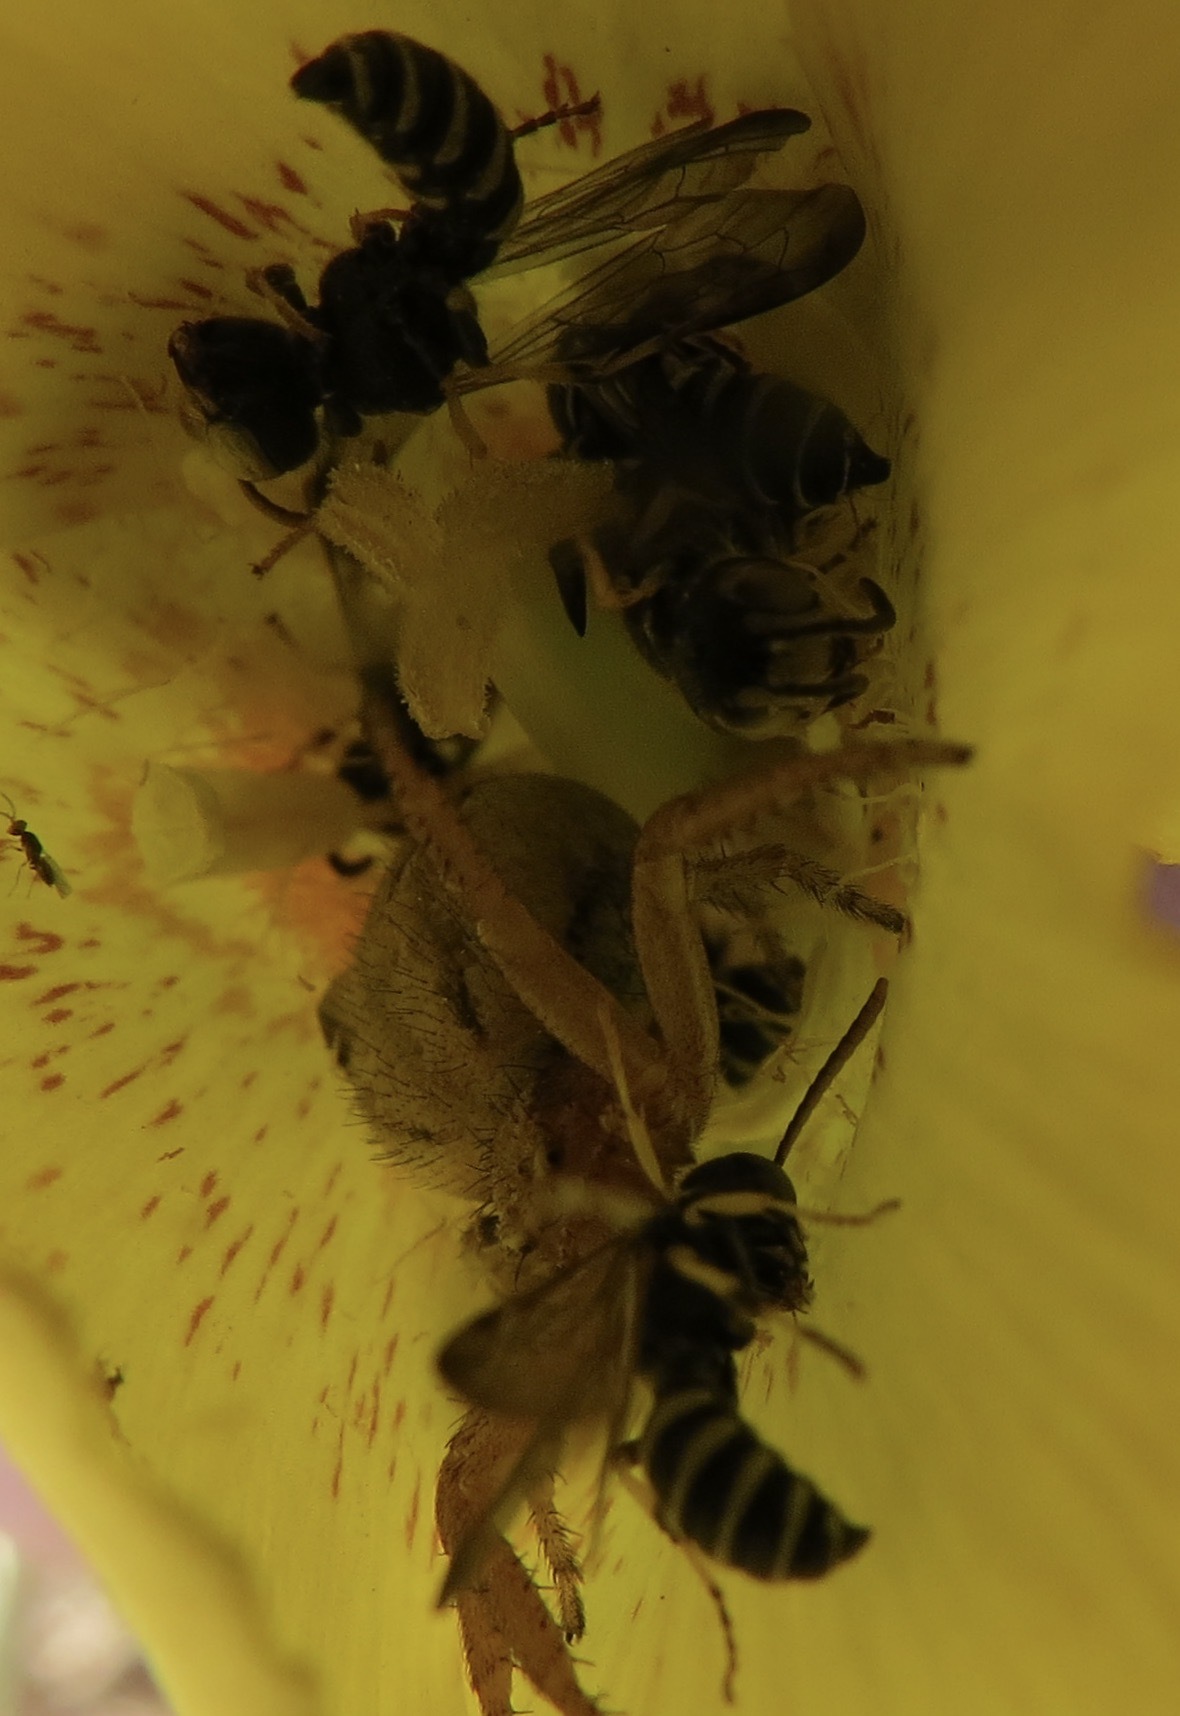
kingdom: Animalia
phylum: Arthropoda
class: Insecta
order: Hymenoptera
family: Crabronidae
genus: Cerceris
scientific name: Cerceris
